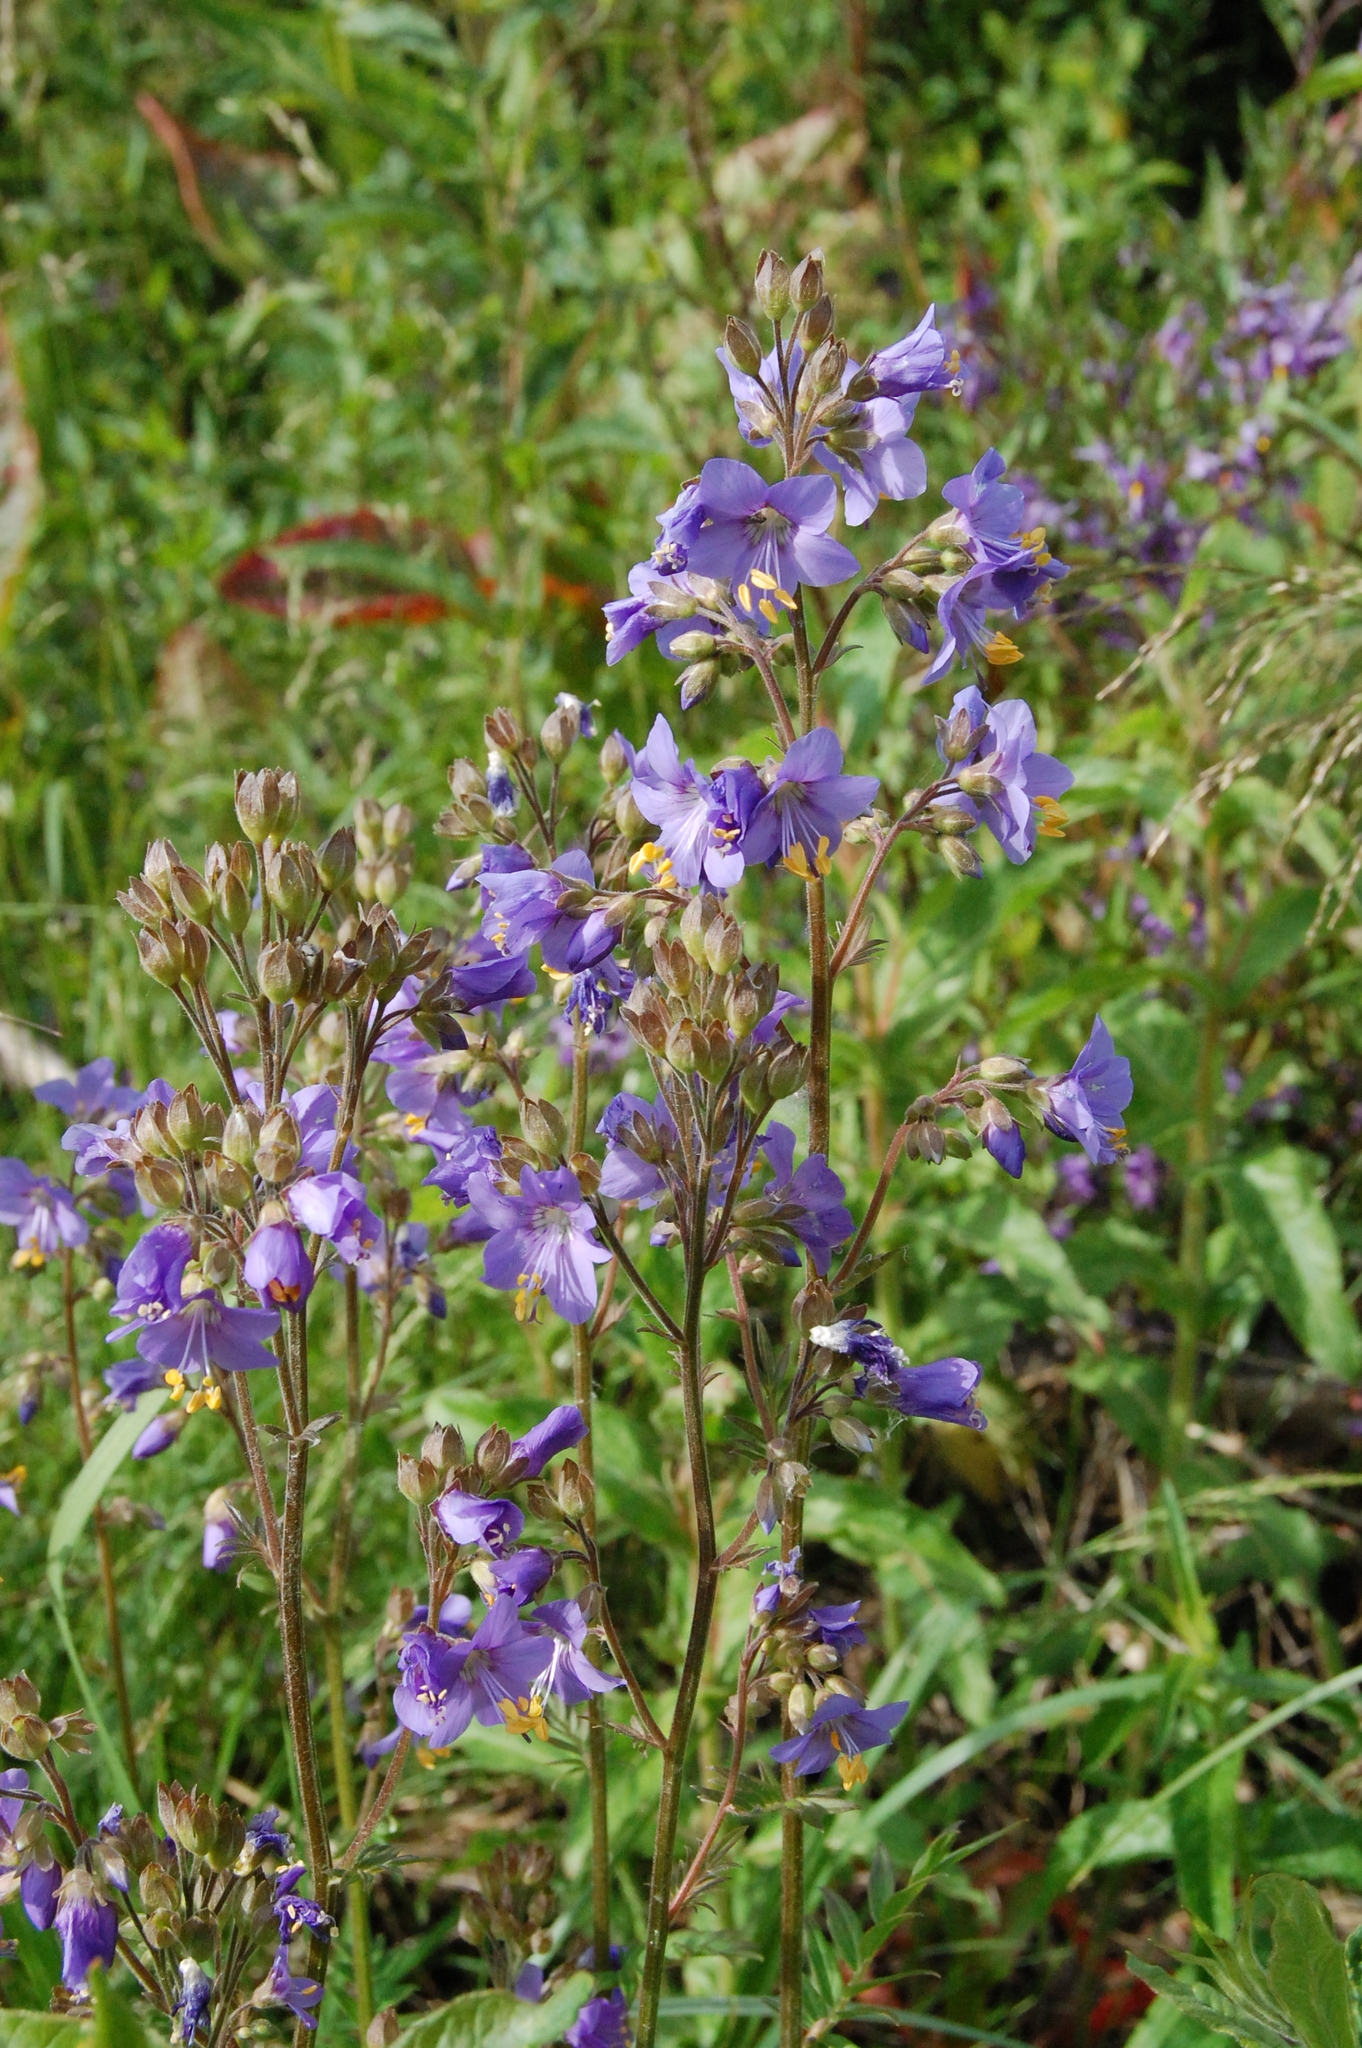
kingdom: Plantae
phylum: Tracheophyta
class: Magnoliopsida
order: Ericales
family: Polemoniaceae
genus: Polemonium
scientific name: Polemonium caeruleum
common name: Jacob's-ladder
